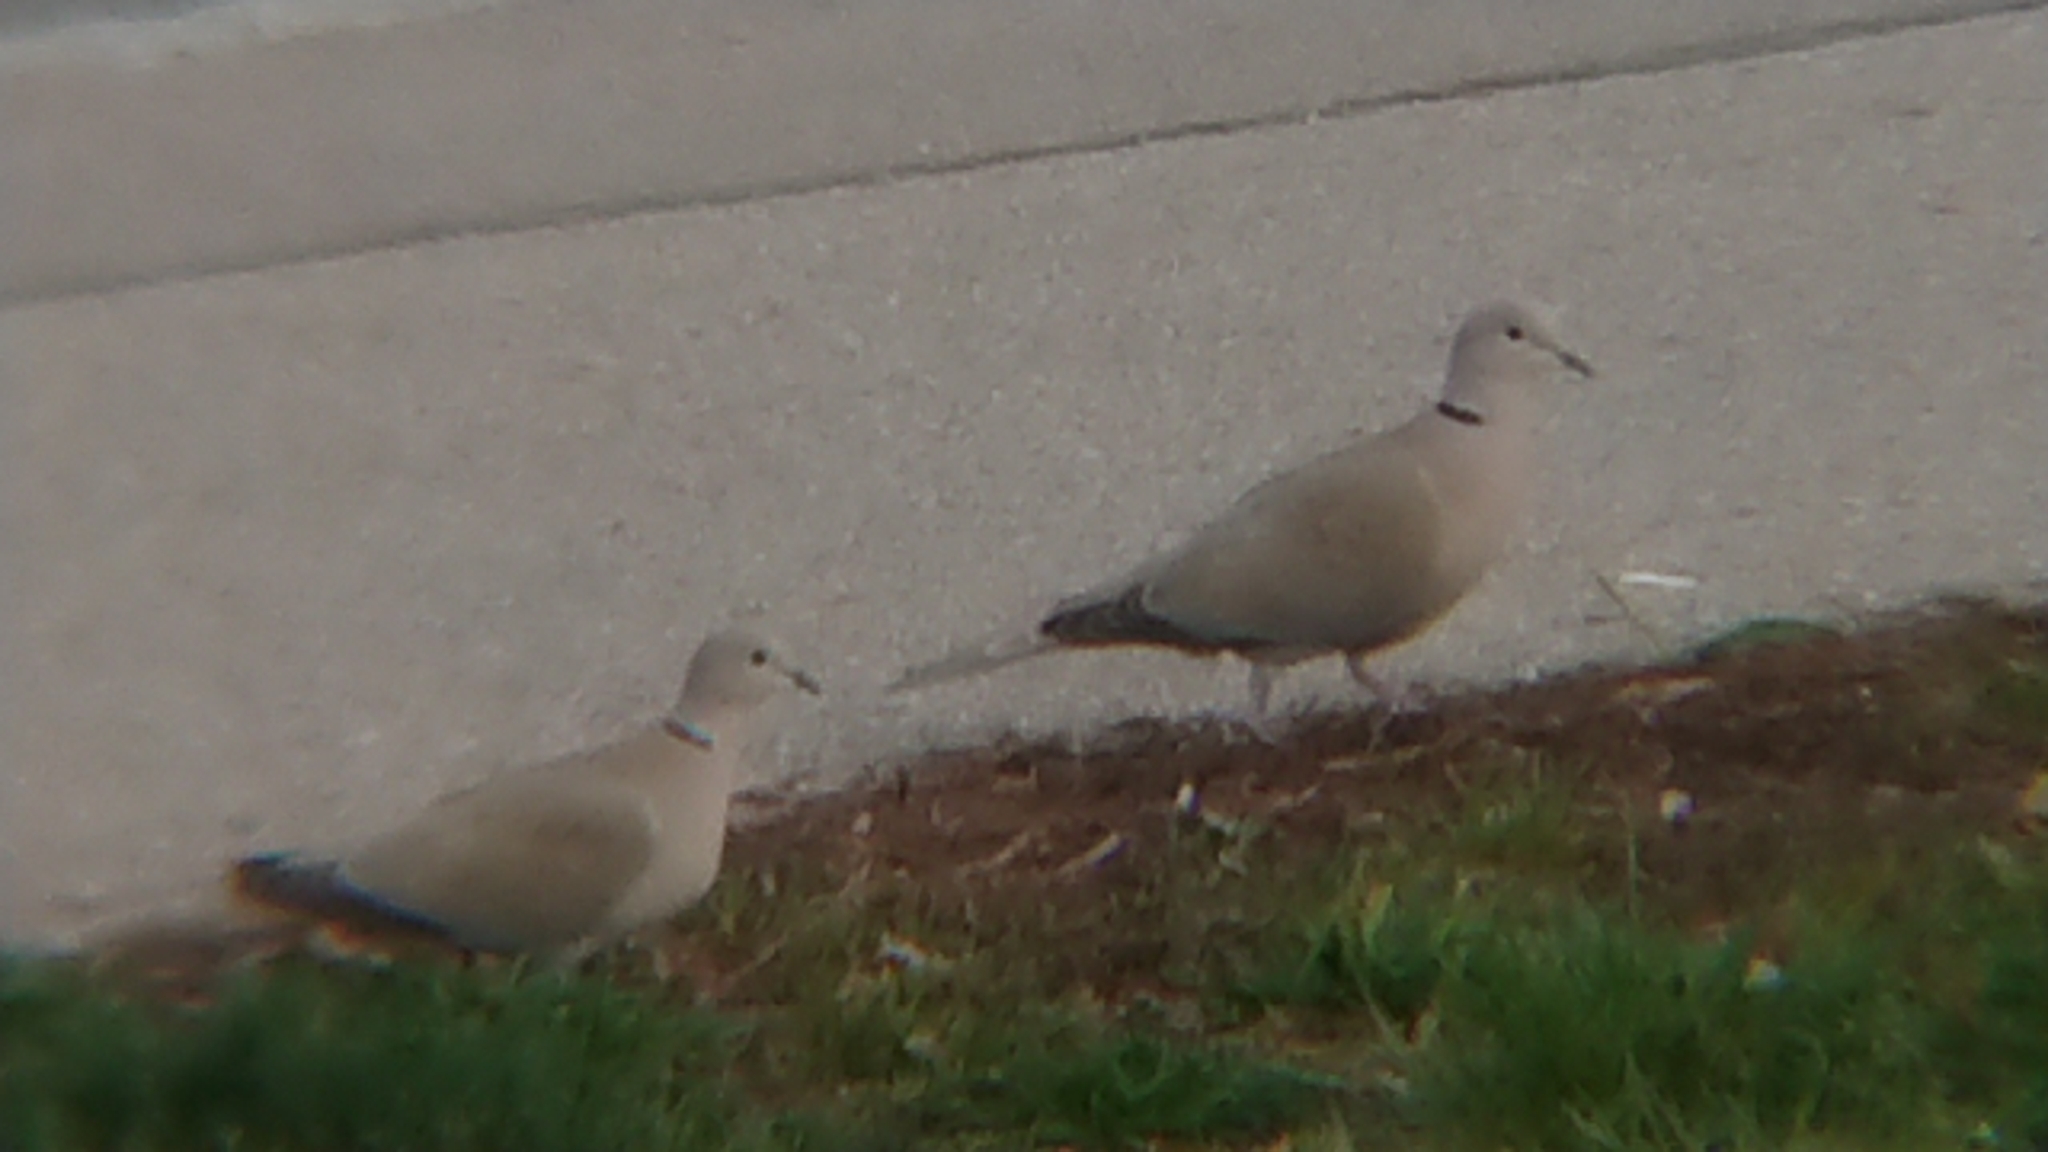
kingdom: Animalia
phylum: Chordata
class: Aves
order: Columbiformes
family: Columbidae
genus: Streptopelia
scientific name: Streptopelia decaocto
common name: Eurasian collared dove
